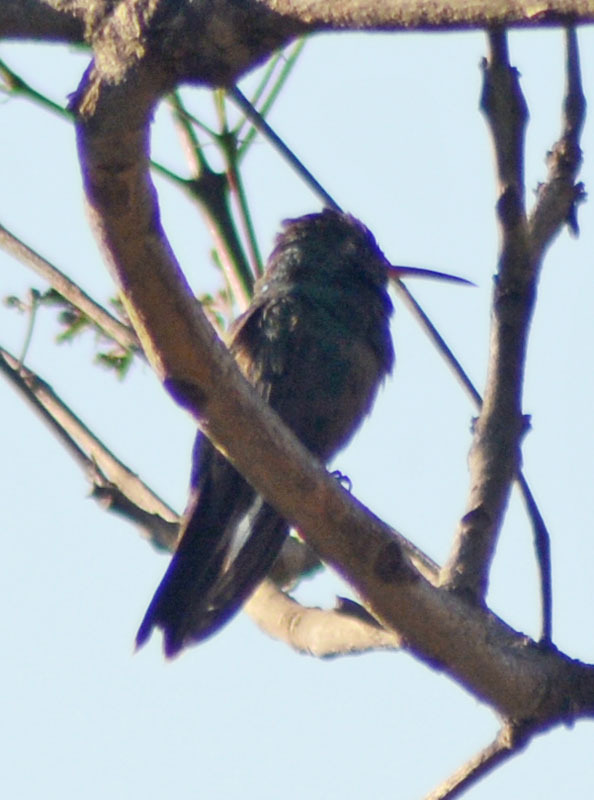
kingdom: Animalia
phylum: Chordata
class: Aves
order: Apodiformes
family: Trochilidae
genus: Cynanthus
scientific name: Cynanthus latirostris
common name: Broad-billed hummingbird
